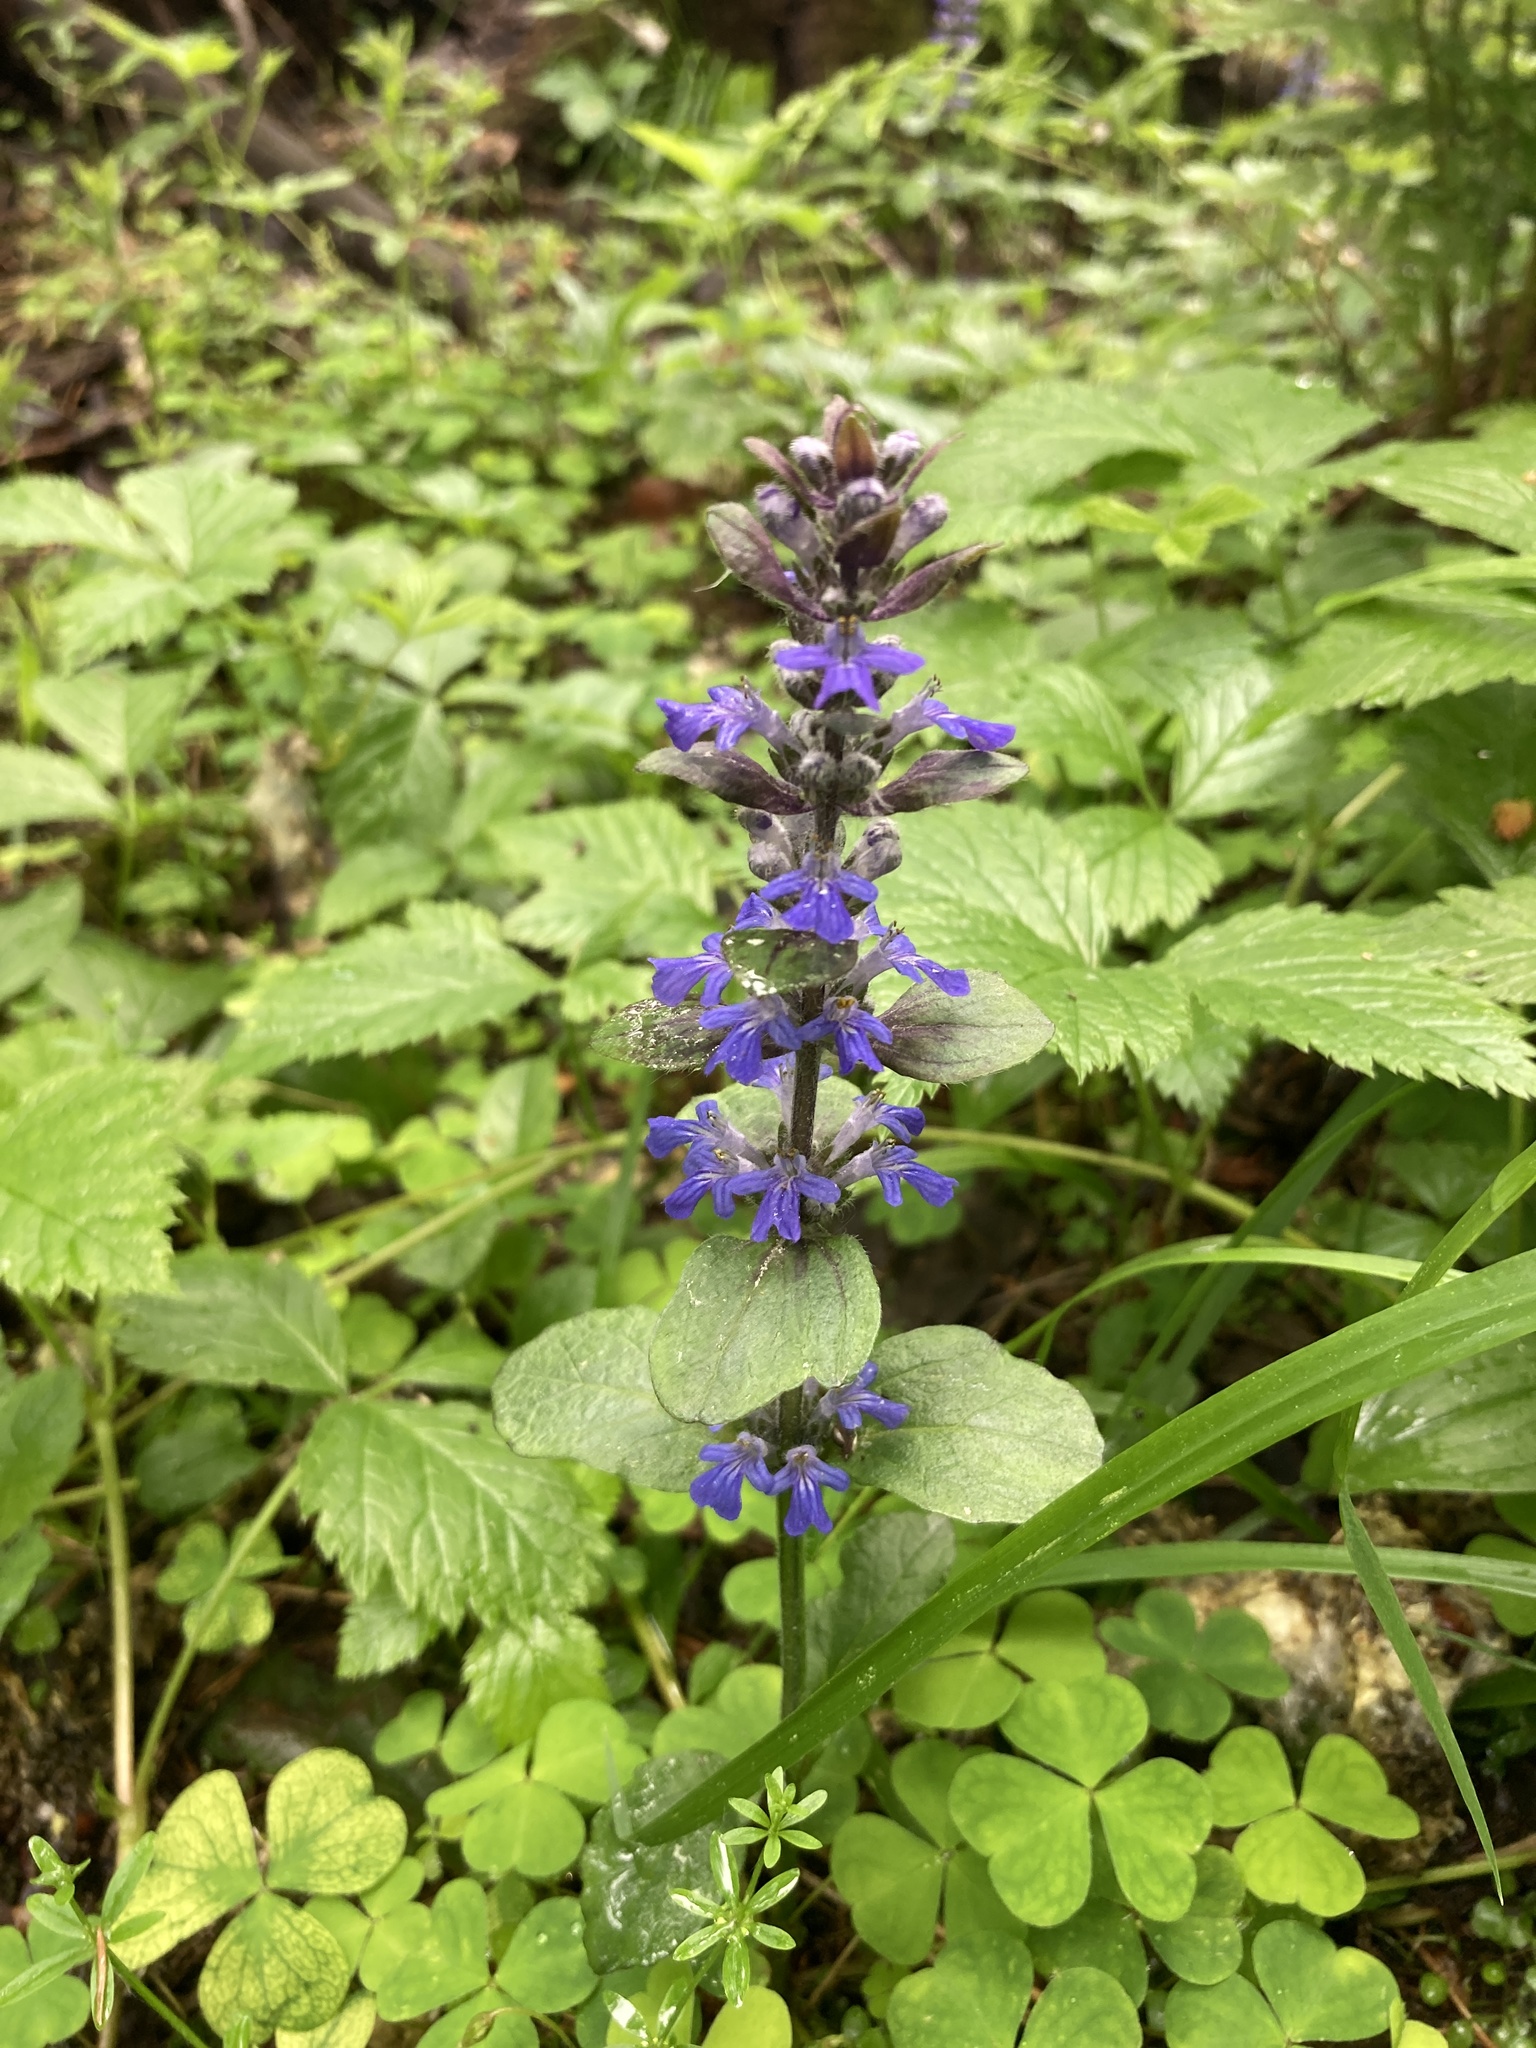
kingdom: Plantae
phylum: Tracheophyta
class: Magnoliopsida
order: Lamiales
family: Lamiaceae
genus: Ajuga
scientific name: Ajuga reptans
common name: Bugle
